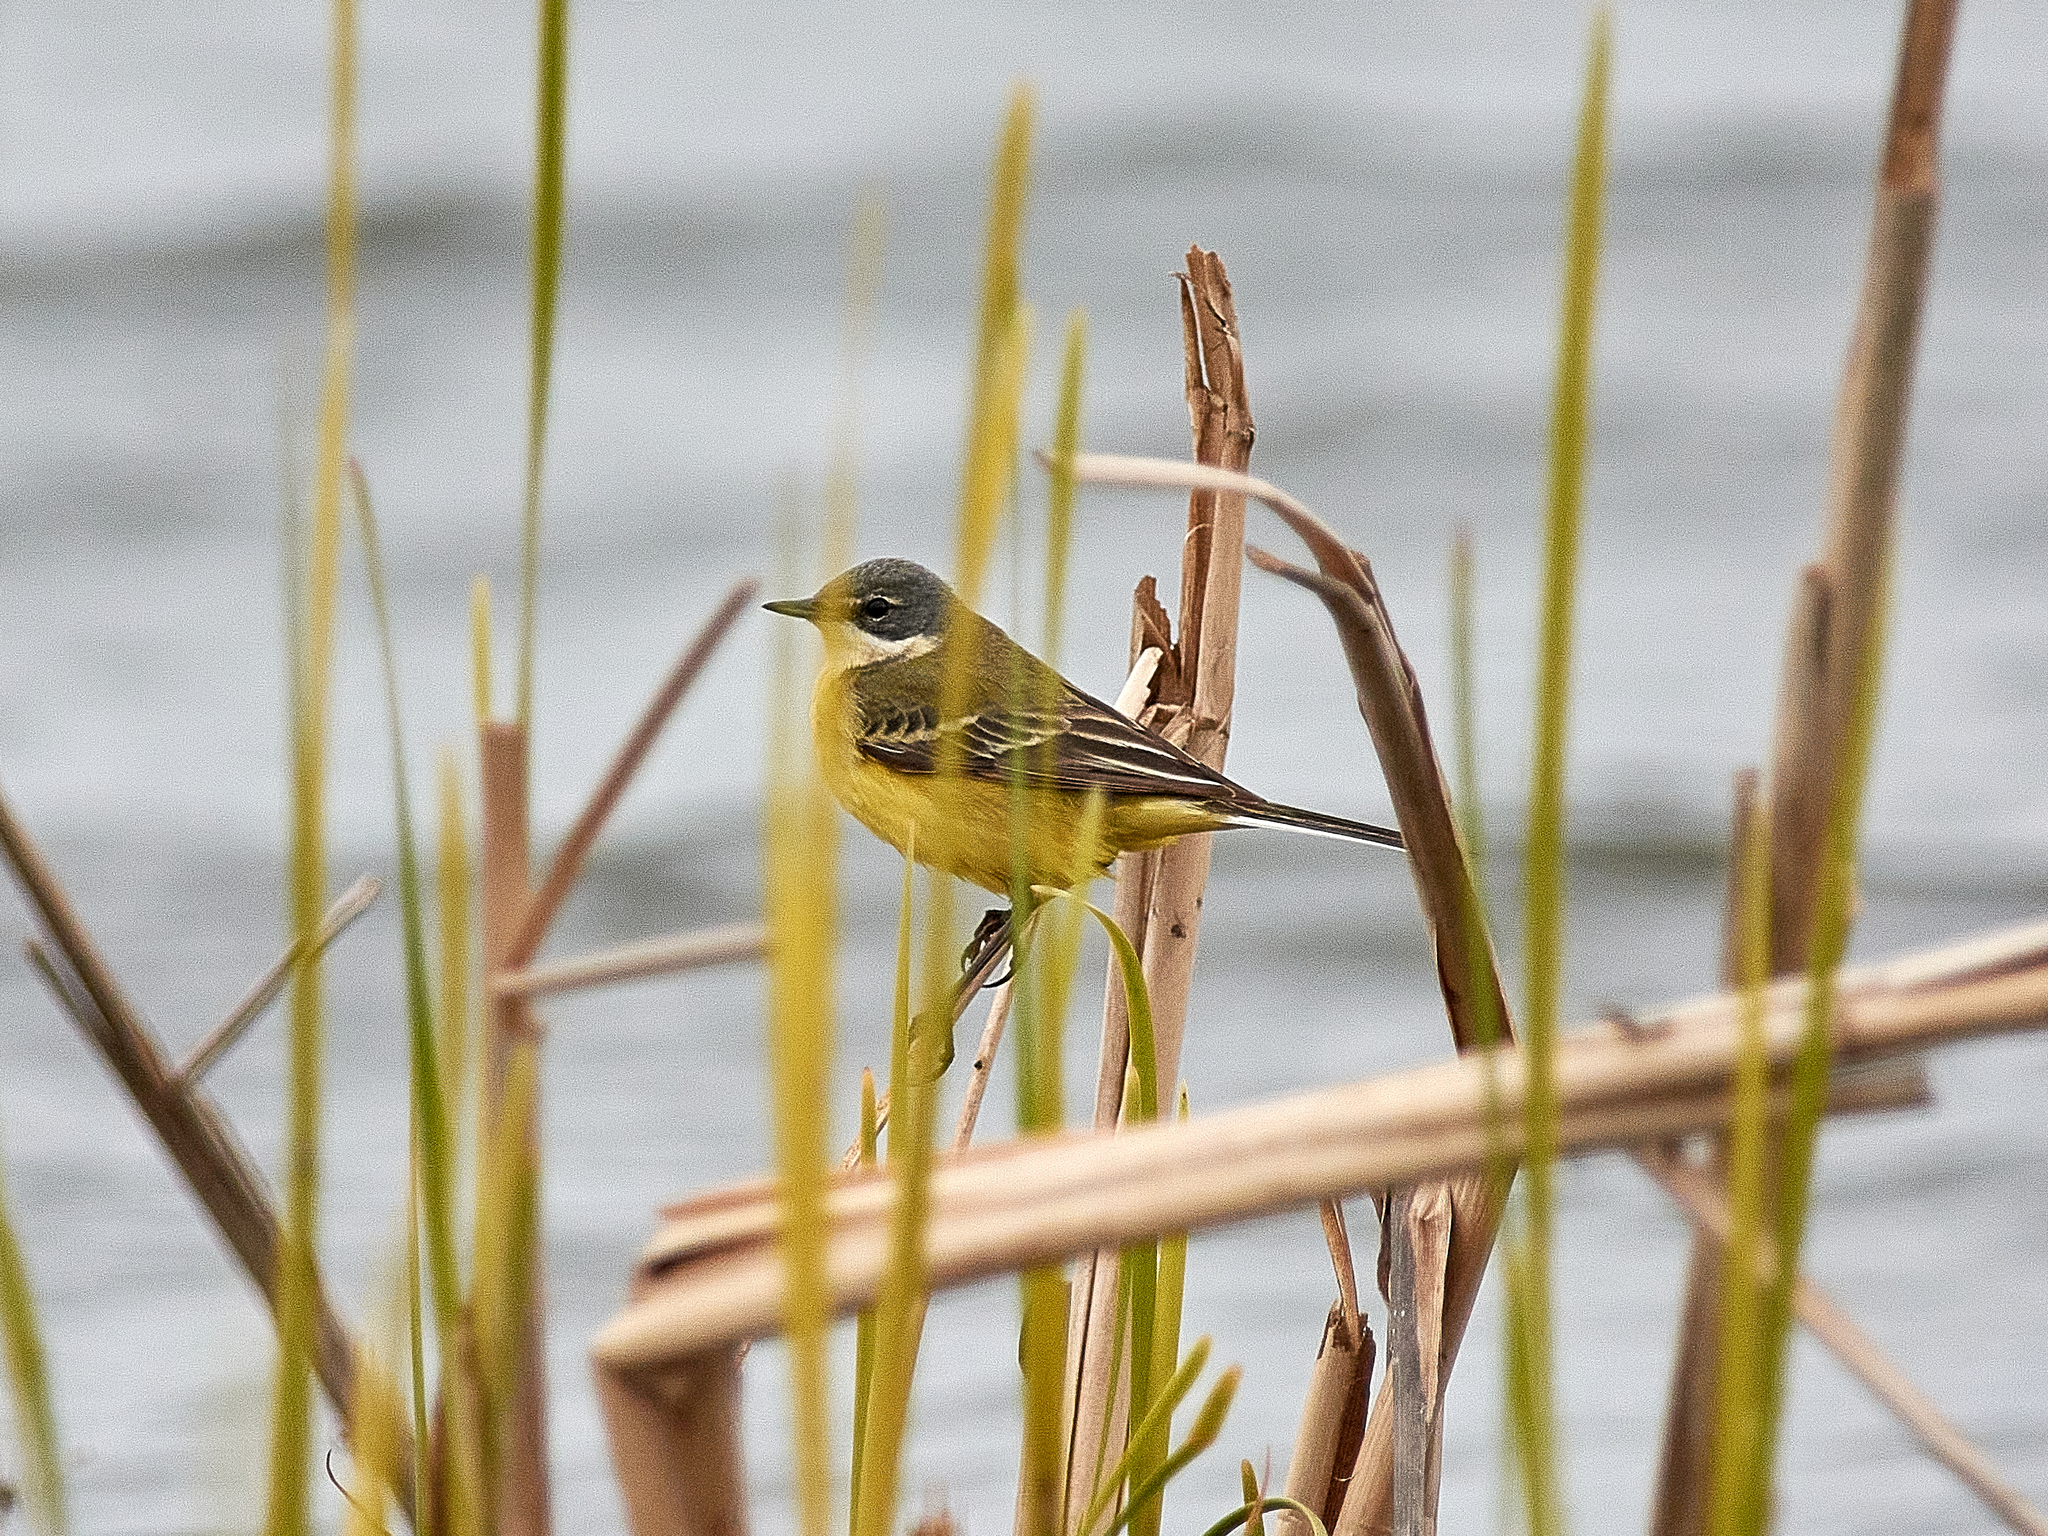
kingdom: Animalia
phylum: Chordata
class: Aves
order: Passeriformes
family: Motacillidae
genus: Motacilla
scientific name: Motacilla flava
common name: Western yellow wagtail
